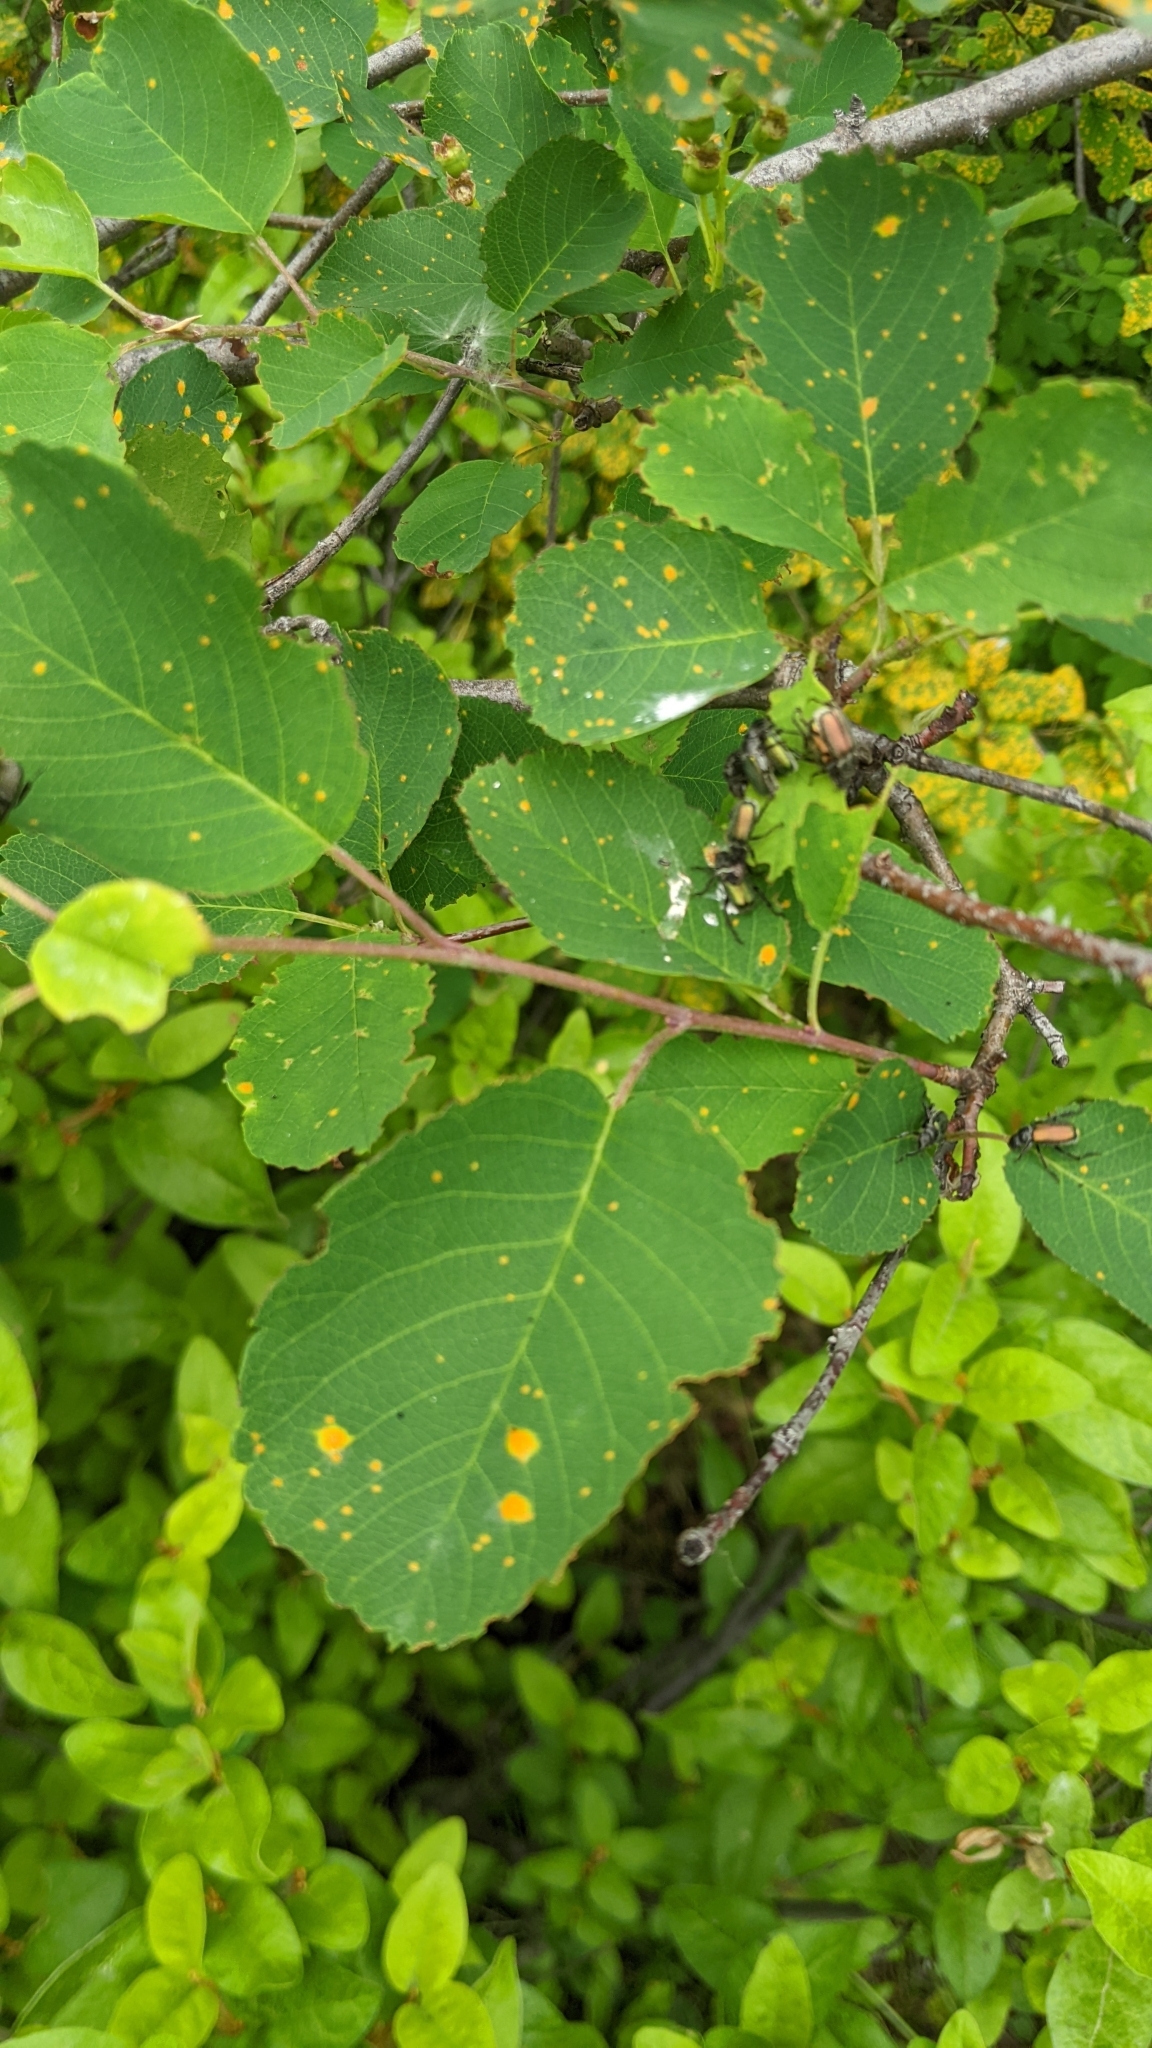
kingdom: Plantae
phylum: Tracheophyta
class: Magnoliopsida
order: Rosales
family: Rosaceae
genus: Amelanchier
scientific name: Amelanchier alnifolia
